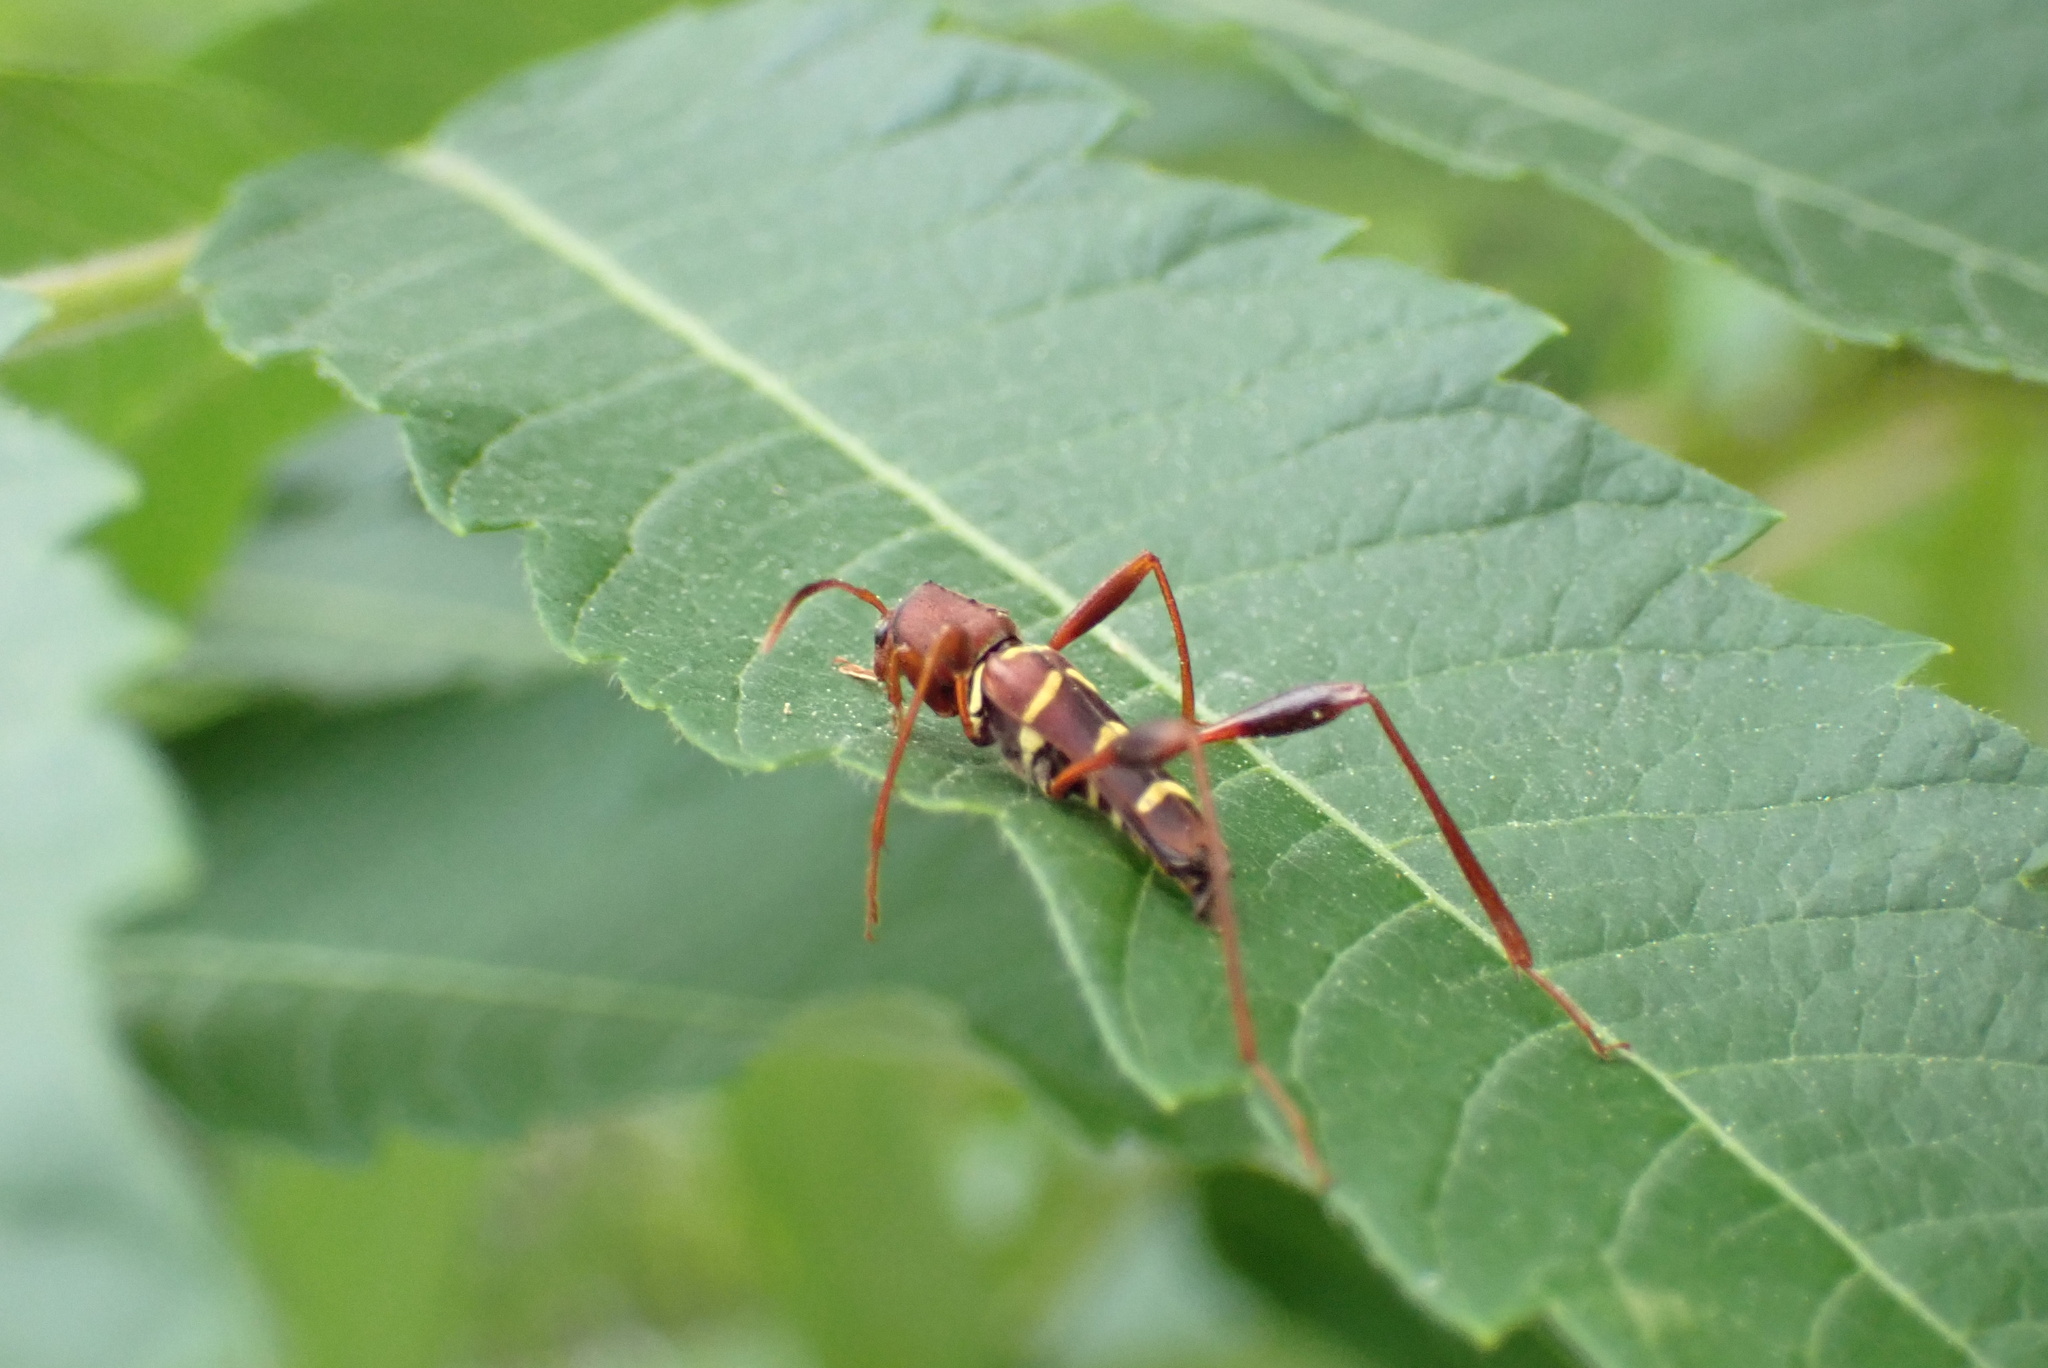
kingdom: Animalia
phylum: Arthropoda
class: Insecta
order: Coleoptera
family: Cerambycidae
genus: Neoclytus
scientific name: Neoclytus acuminatus
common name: Read-headed ash borer
